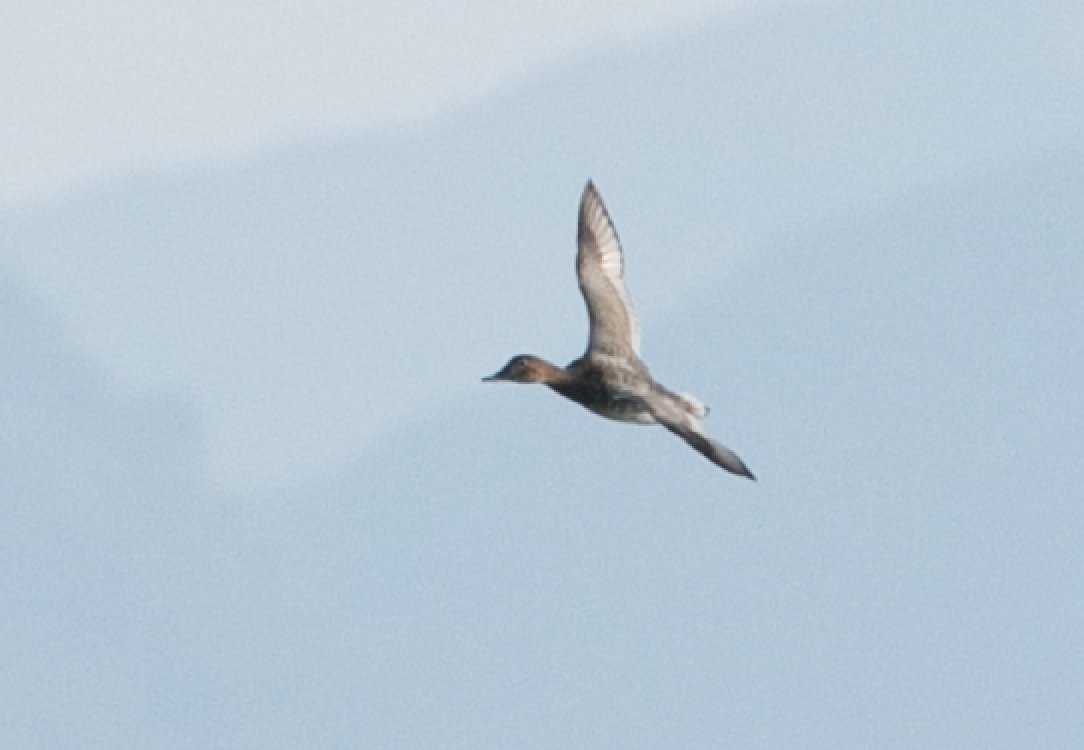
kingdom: Animalia
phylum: Chordata
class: Aves
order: Anseriformes
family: Anatidae
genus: Aythya
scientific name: Aythya ferina
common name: Common pochard
